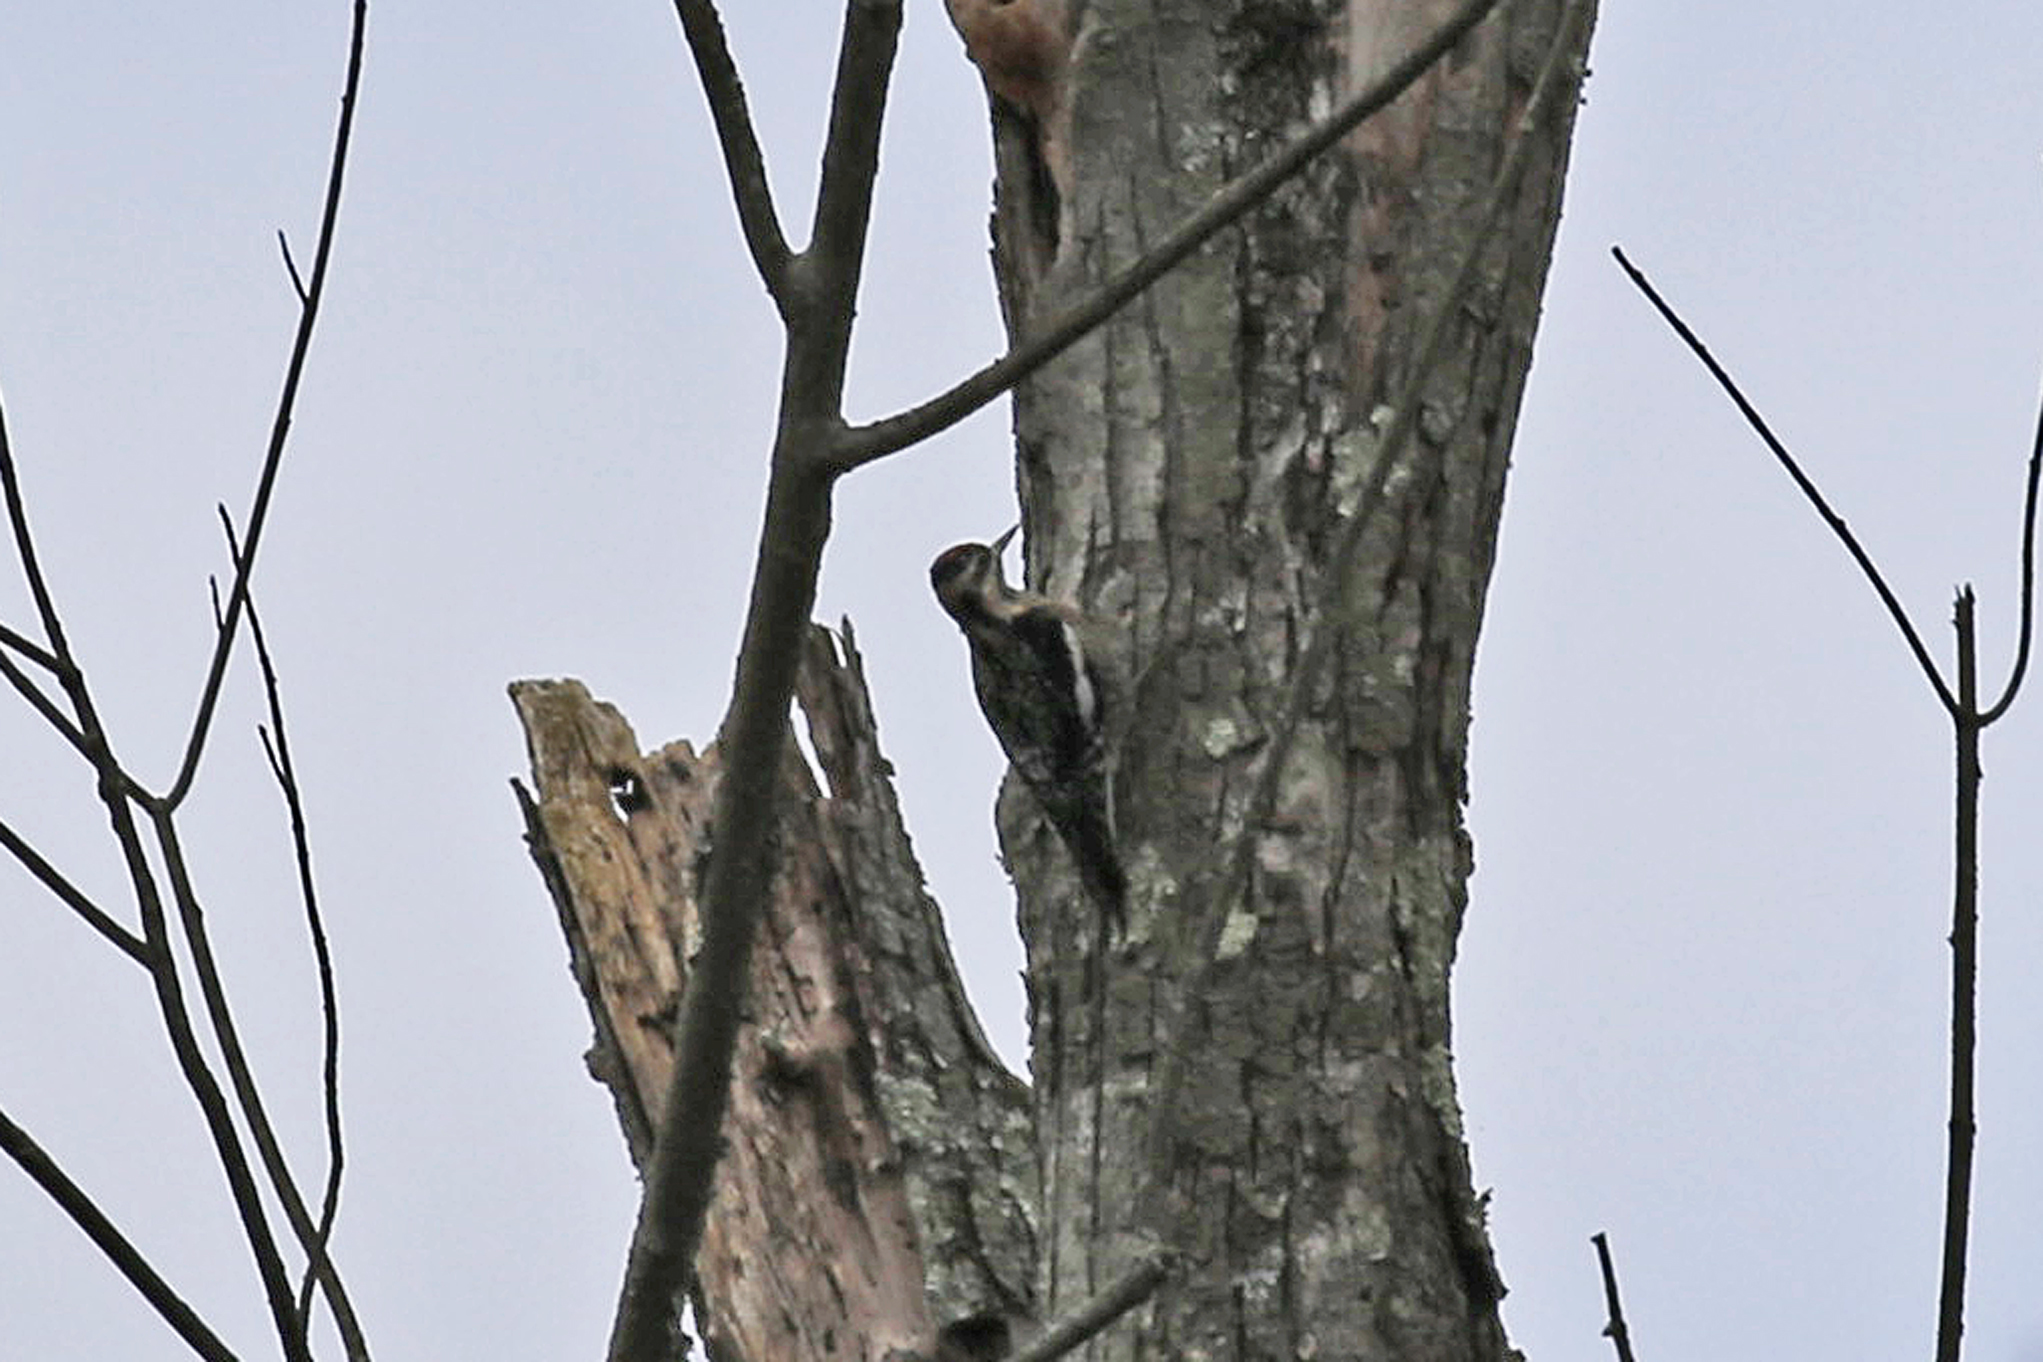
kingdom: Animalia
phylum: Chordata
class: Aves
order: Piciformes
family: Picidae
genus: Sphyrapicus
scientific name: Sphyrapicus varius
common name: Yellow-bellied sapsucker
